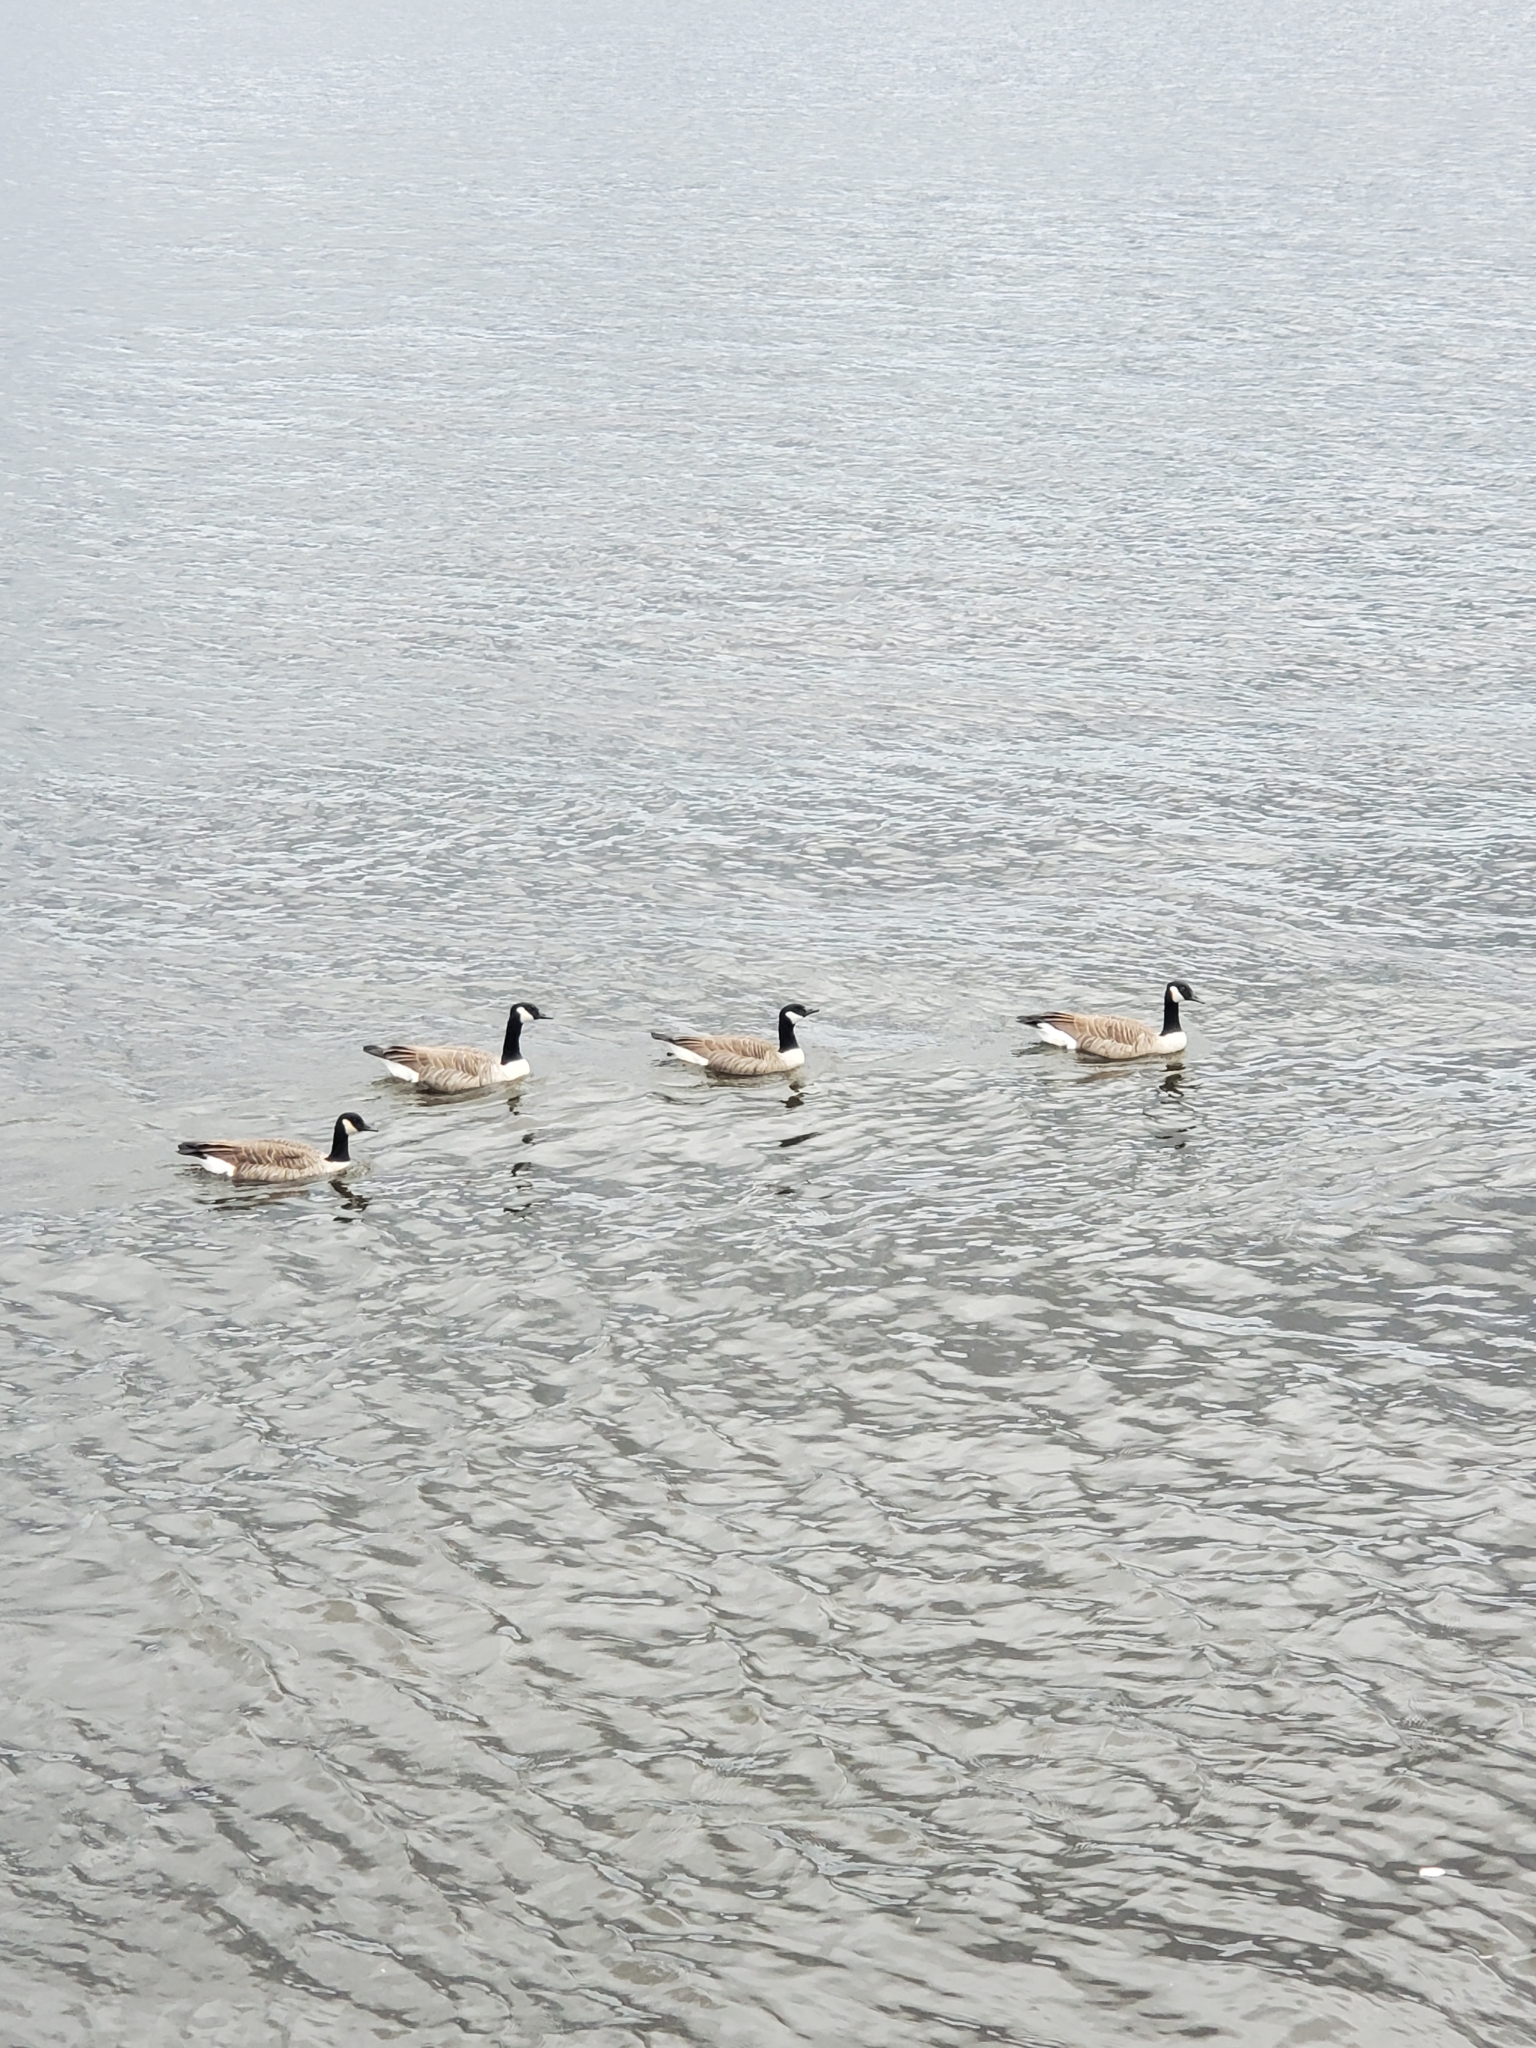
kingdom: Animalia
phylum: Chordata
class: Aves
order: Anseriformes
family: Anatidae
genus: Branta
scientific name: Branta canadensis
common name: Canada goose
